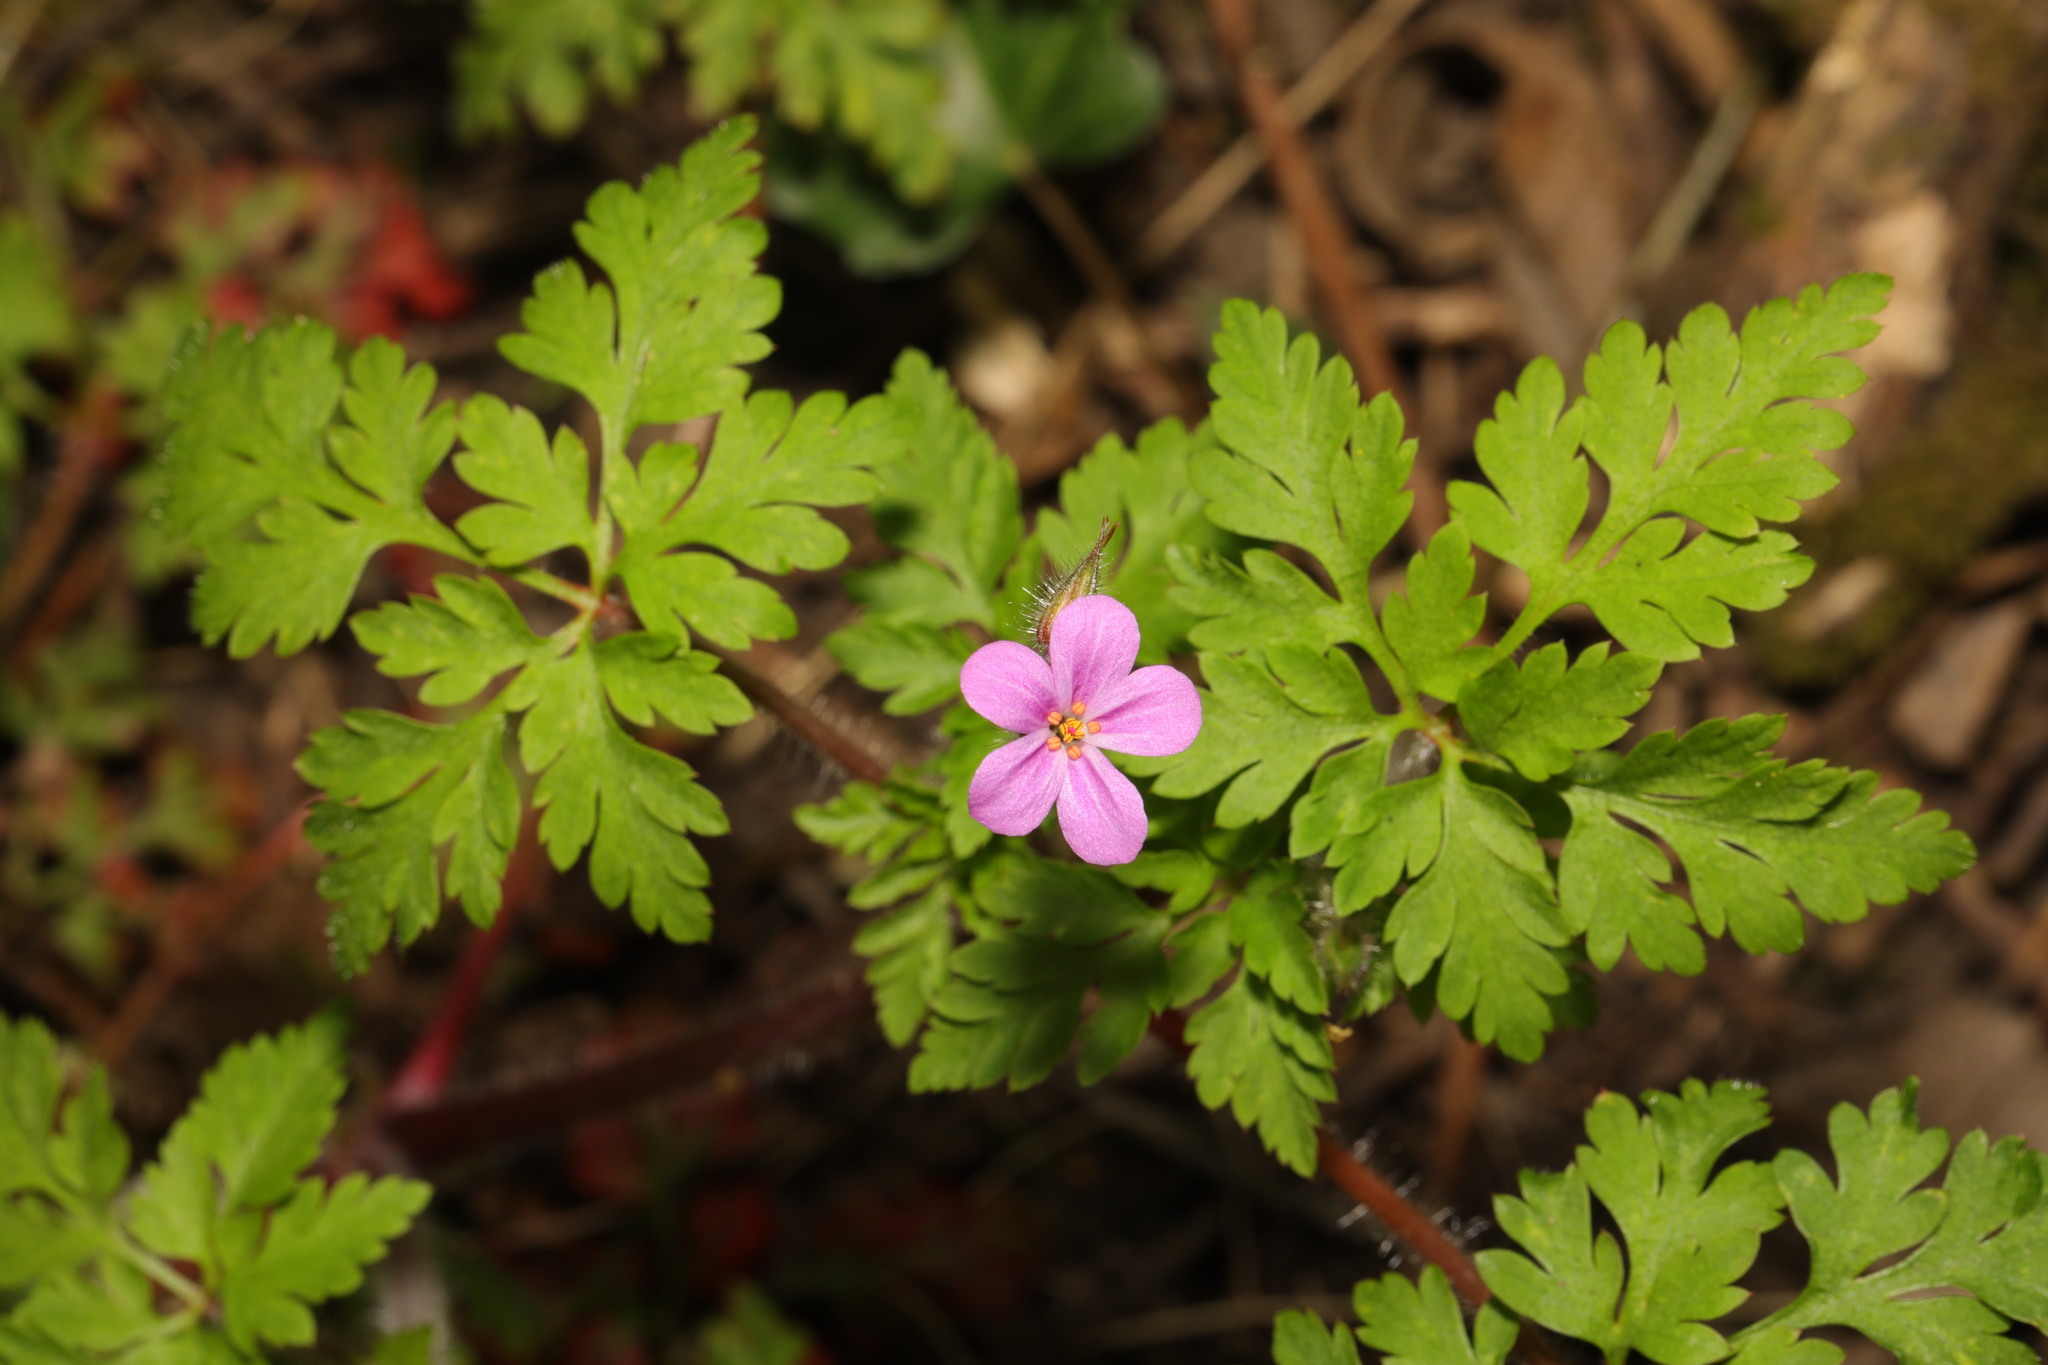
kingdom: Plantae
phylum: Tracheophyta
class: Magnoliopsida
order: Geraniales
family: Geraniaceae
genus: Geranium
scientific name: Geranium robertianum
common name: Herb-robert
